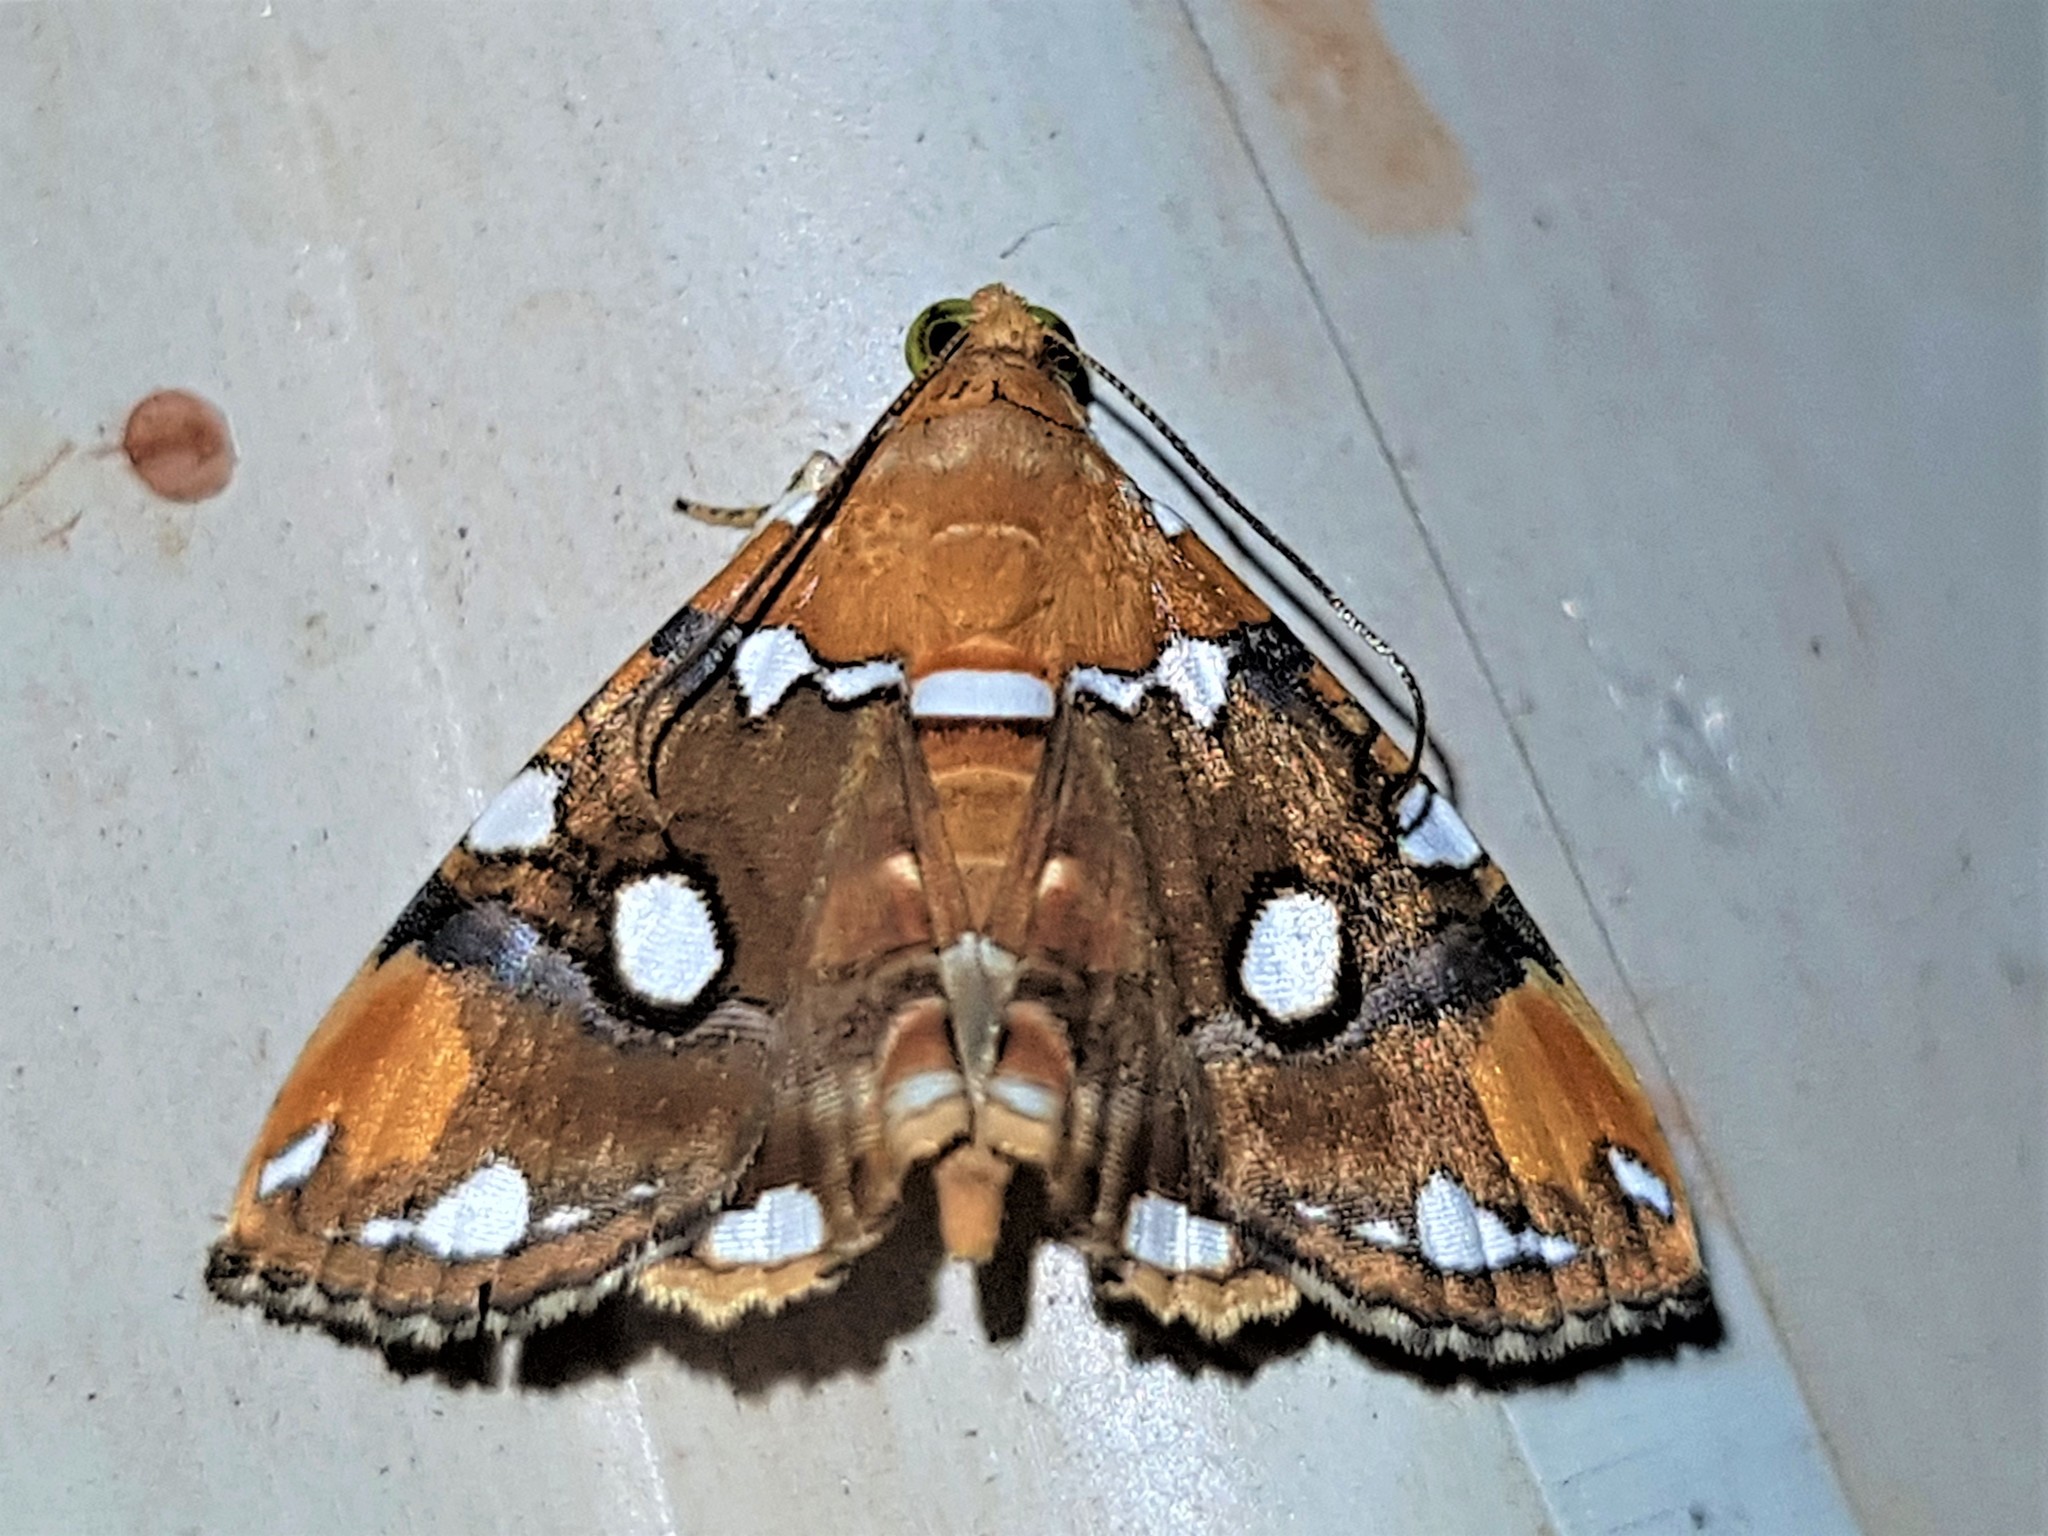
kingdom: Animalia
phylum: Arthropoda
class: Insecta
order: Lepidoptera
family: Erebidae
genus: Eulepidotis
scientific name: Eulepidotis guttata
